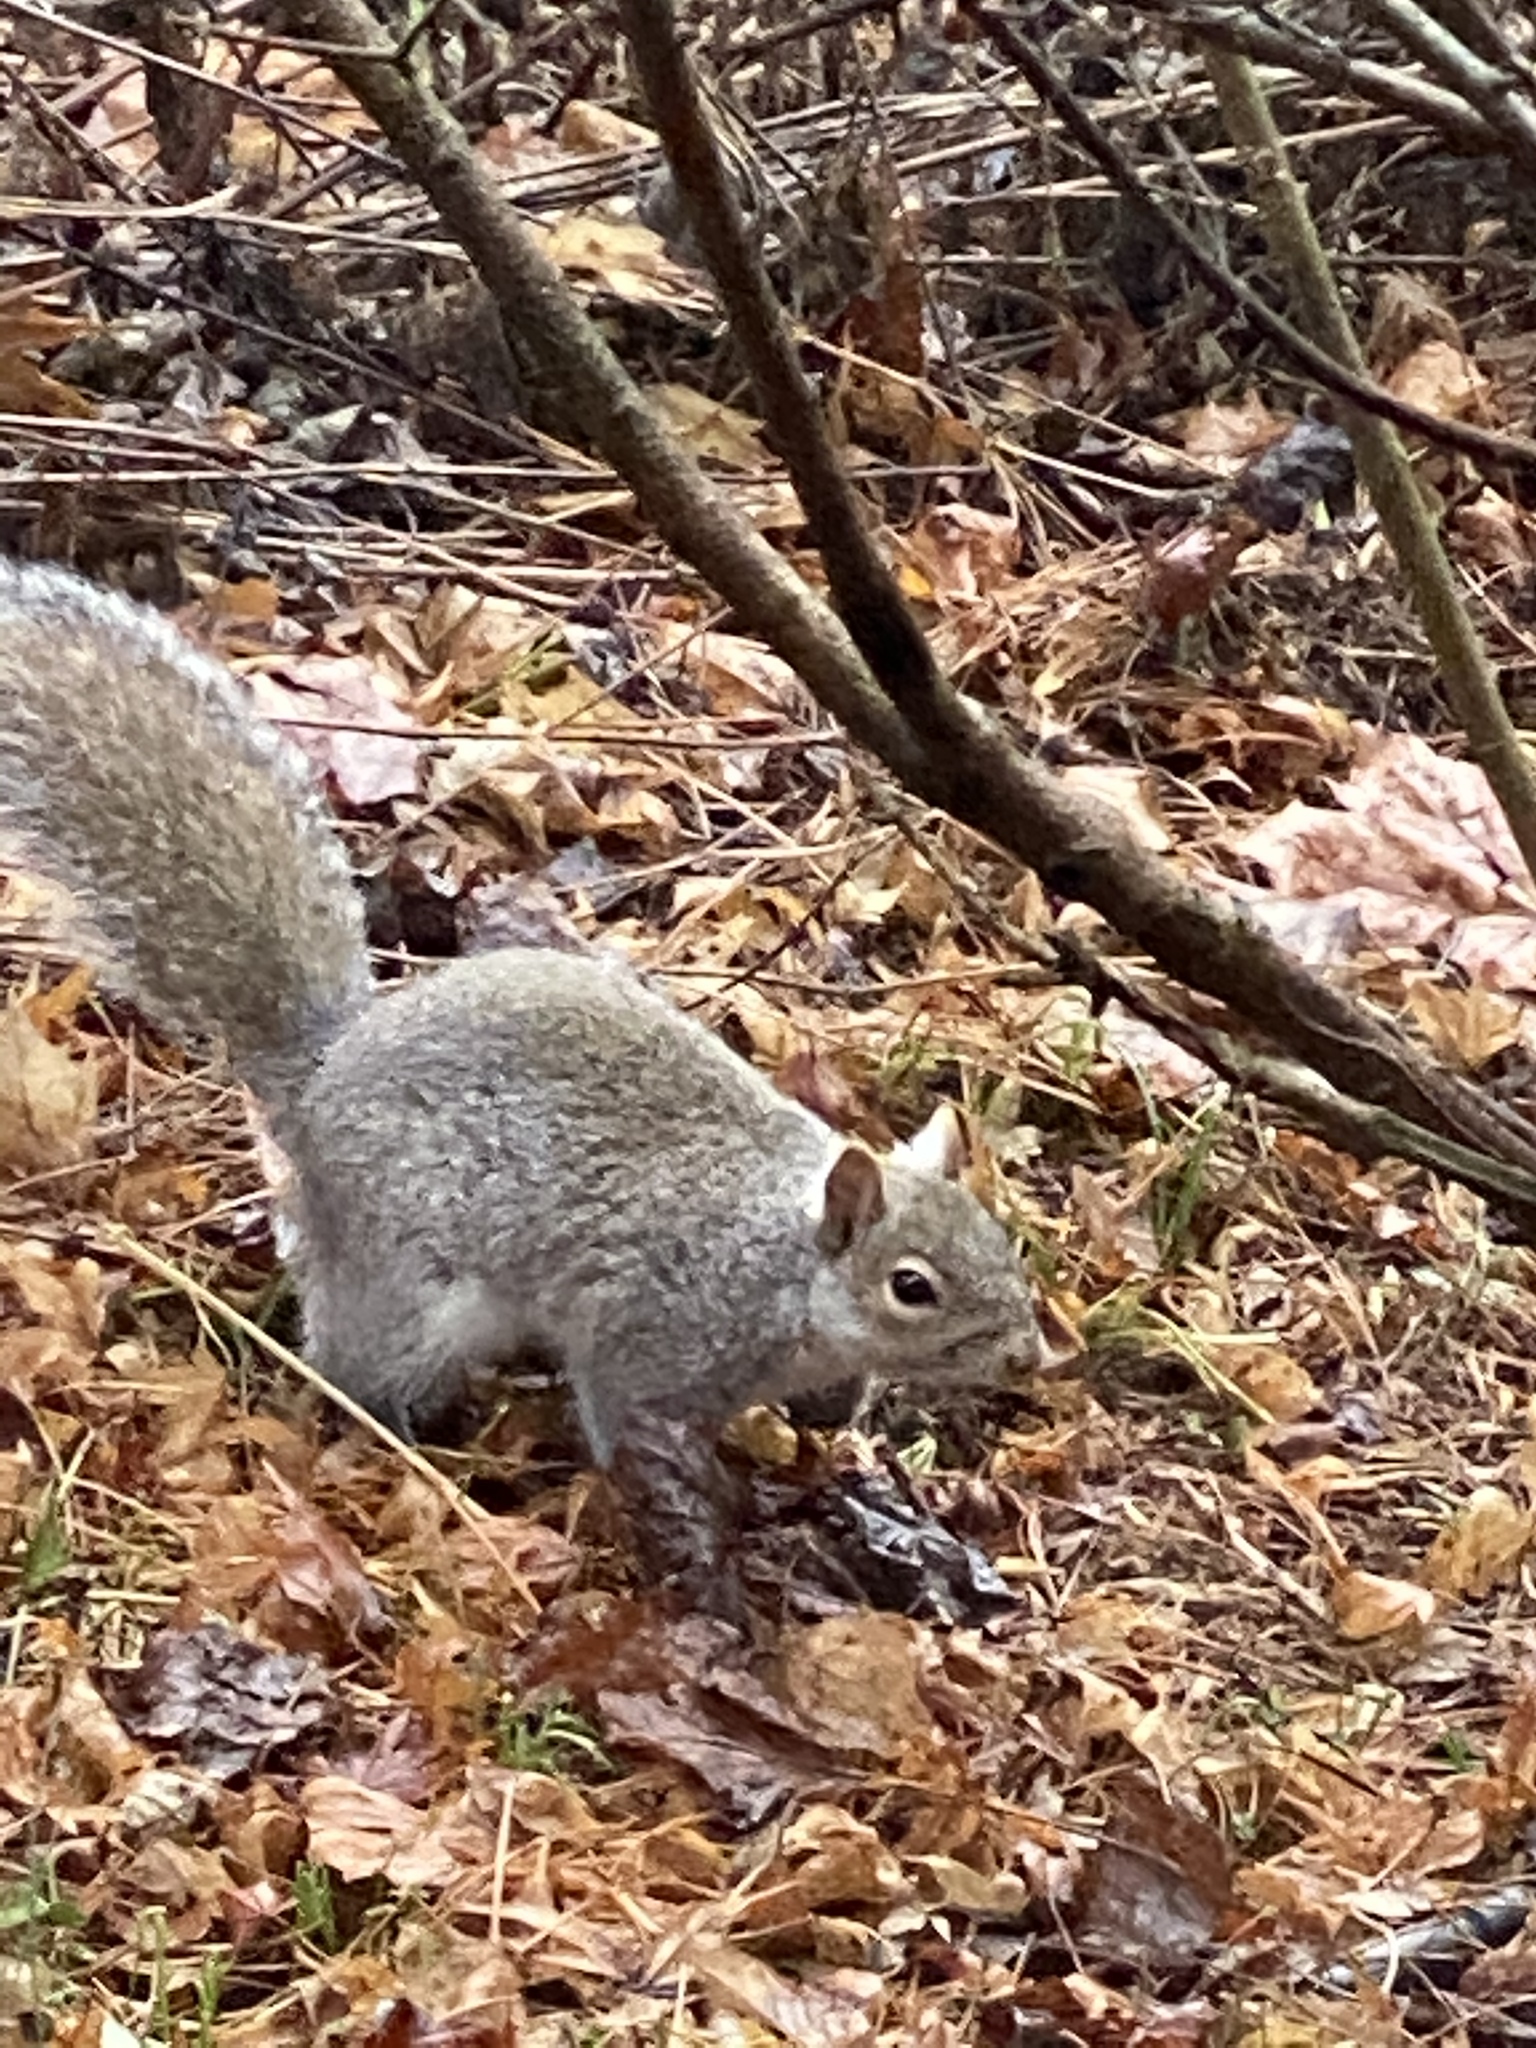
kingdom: Animalia
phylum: Chordata
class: Mammalia
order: Rodentia
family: Sciuridae
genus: Sciurus
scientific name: Sciurus carolinensis
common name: Eastern gray squirrel
